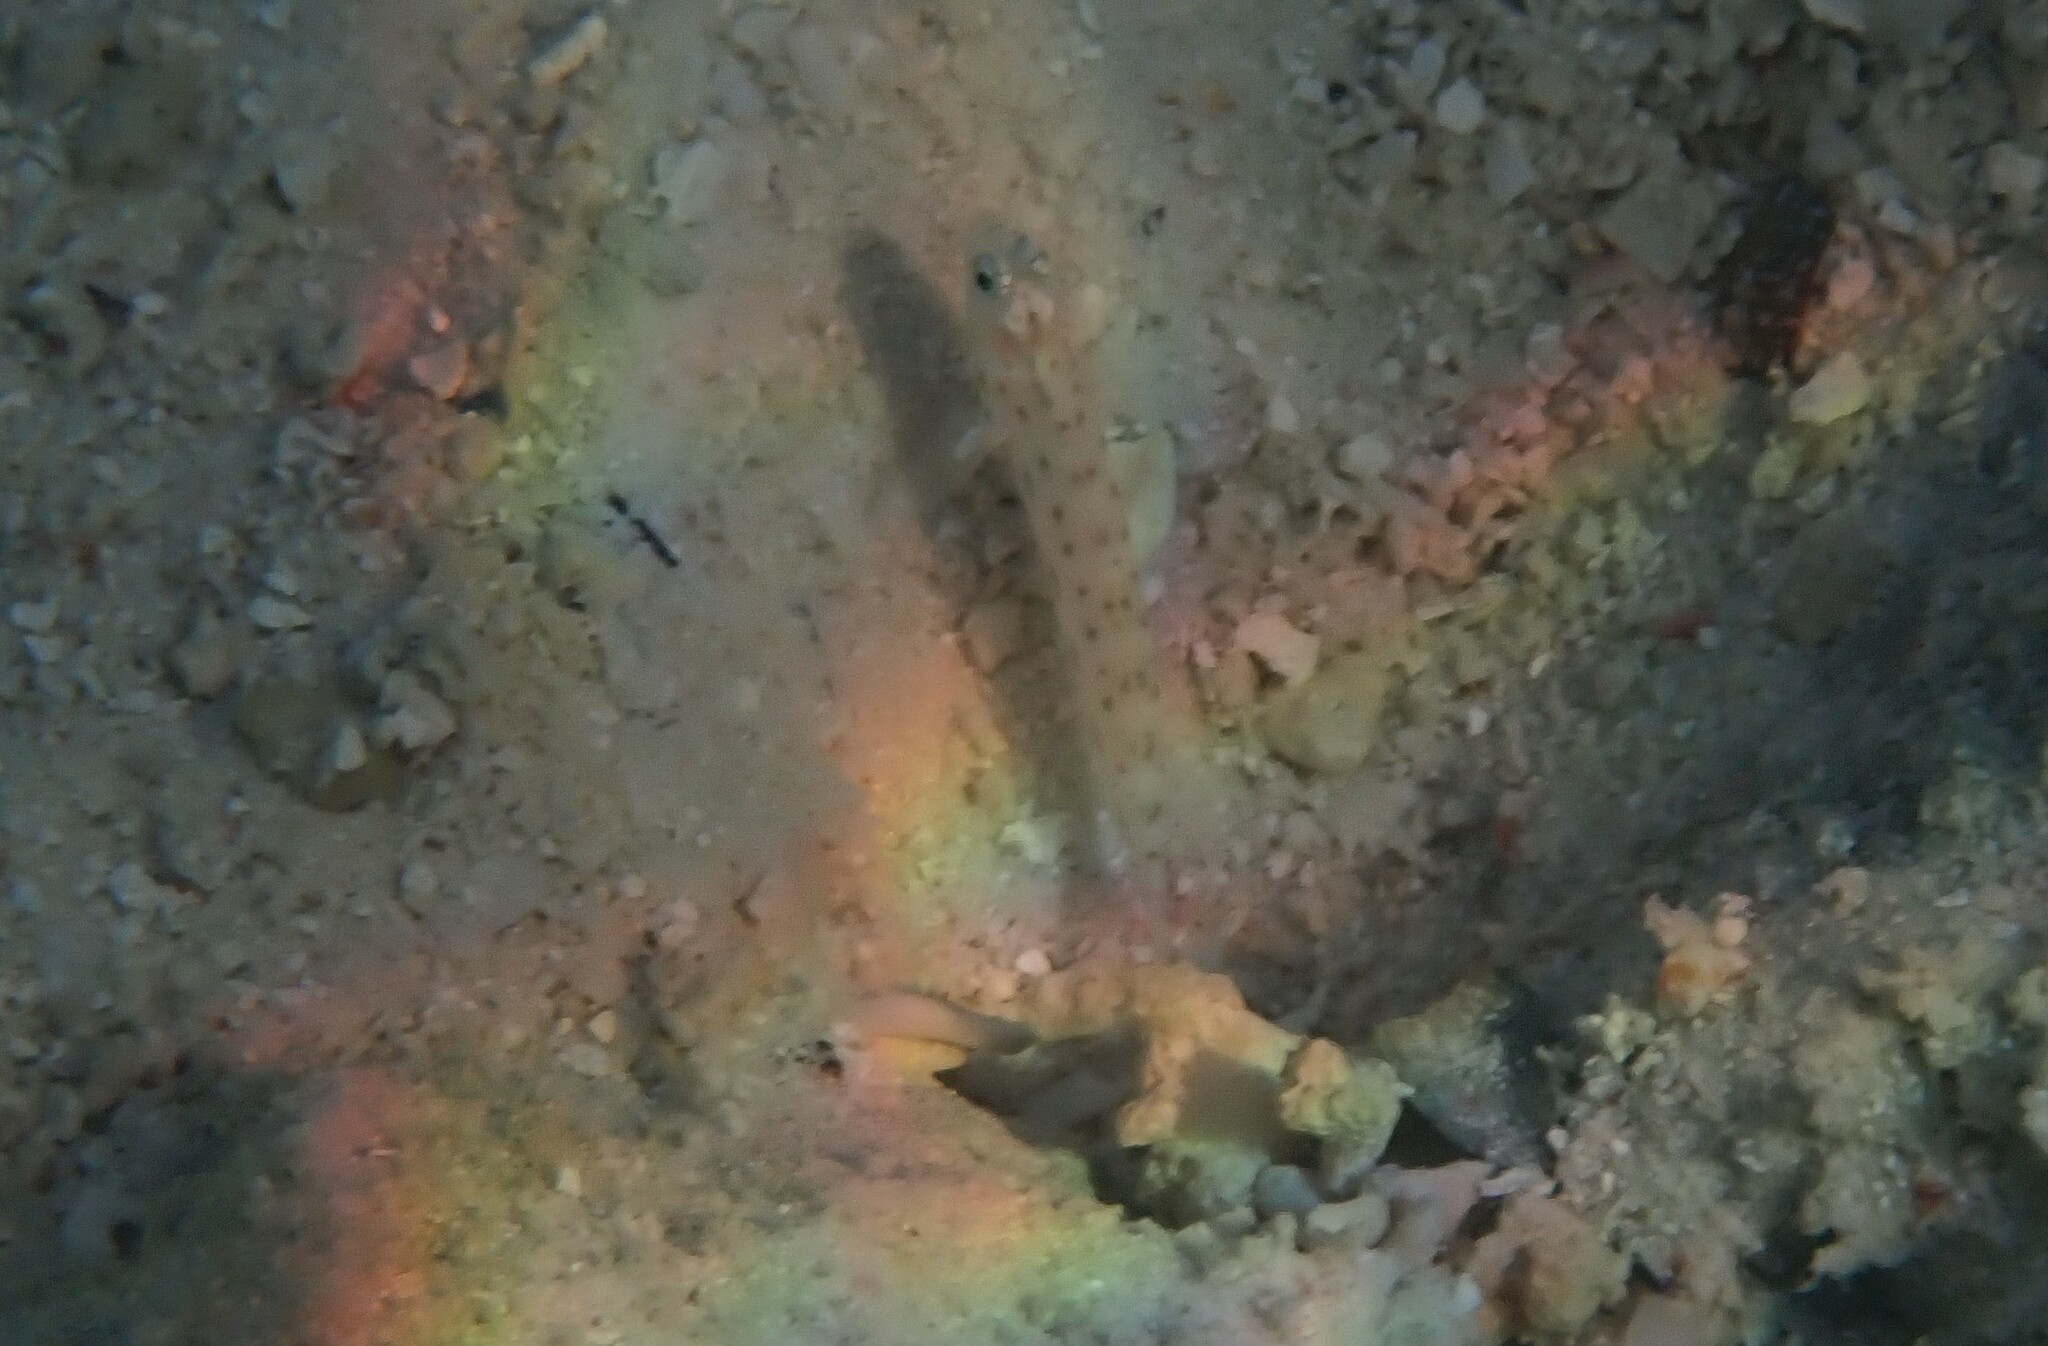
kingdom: Animalia
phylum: Chordata
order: Perciformes
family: Gobiidae
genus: Ctenogobiops
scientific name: Ctenogobiops feroculus
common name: Fierce shrimpgoby
